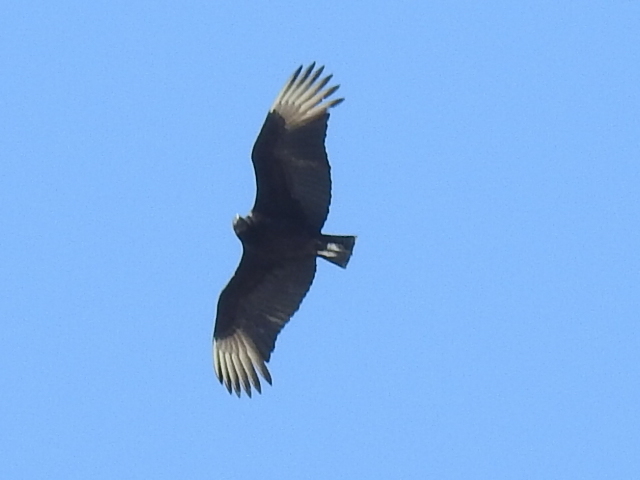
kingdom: Animalia
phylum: Chordata
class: Aves
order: Accipitriformes
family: Cathartidae
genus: Coragyps
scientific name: Coragyps atratus
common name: Black vulture
